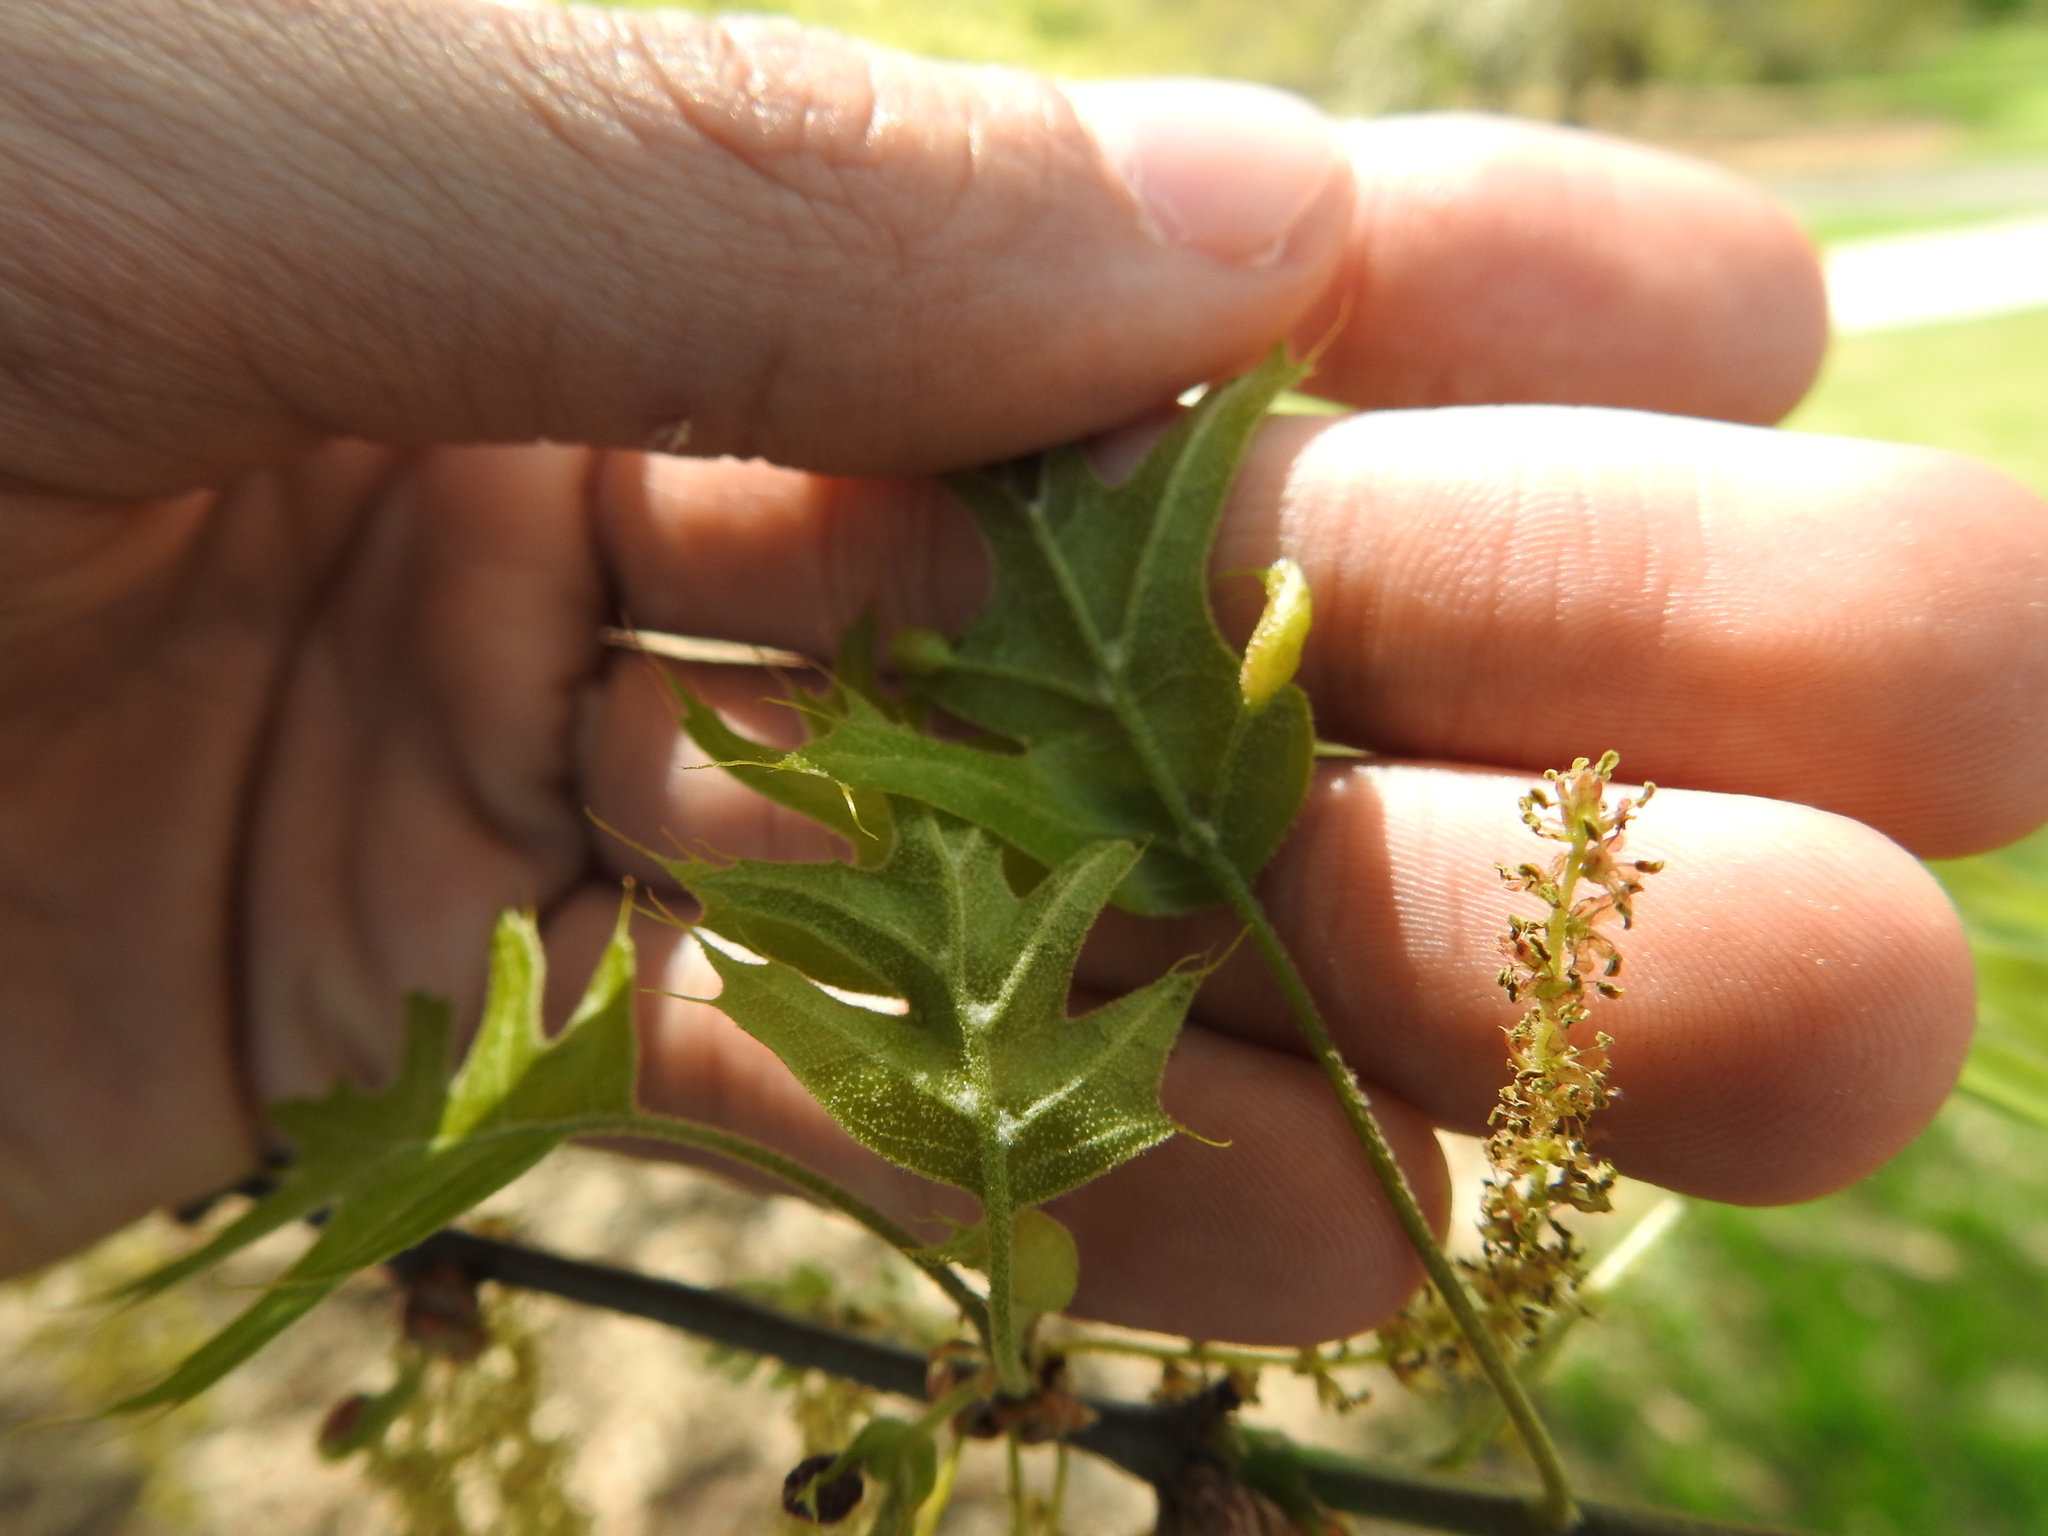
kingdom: Animalia
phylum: Arthropoda
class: Insecta
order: Diptera
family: Cecidomyiidae
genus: Macrodiplosis
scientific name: Macrodiplosis majalis
